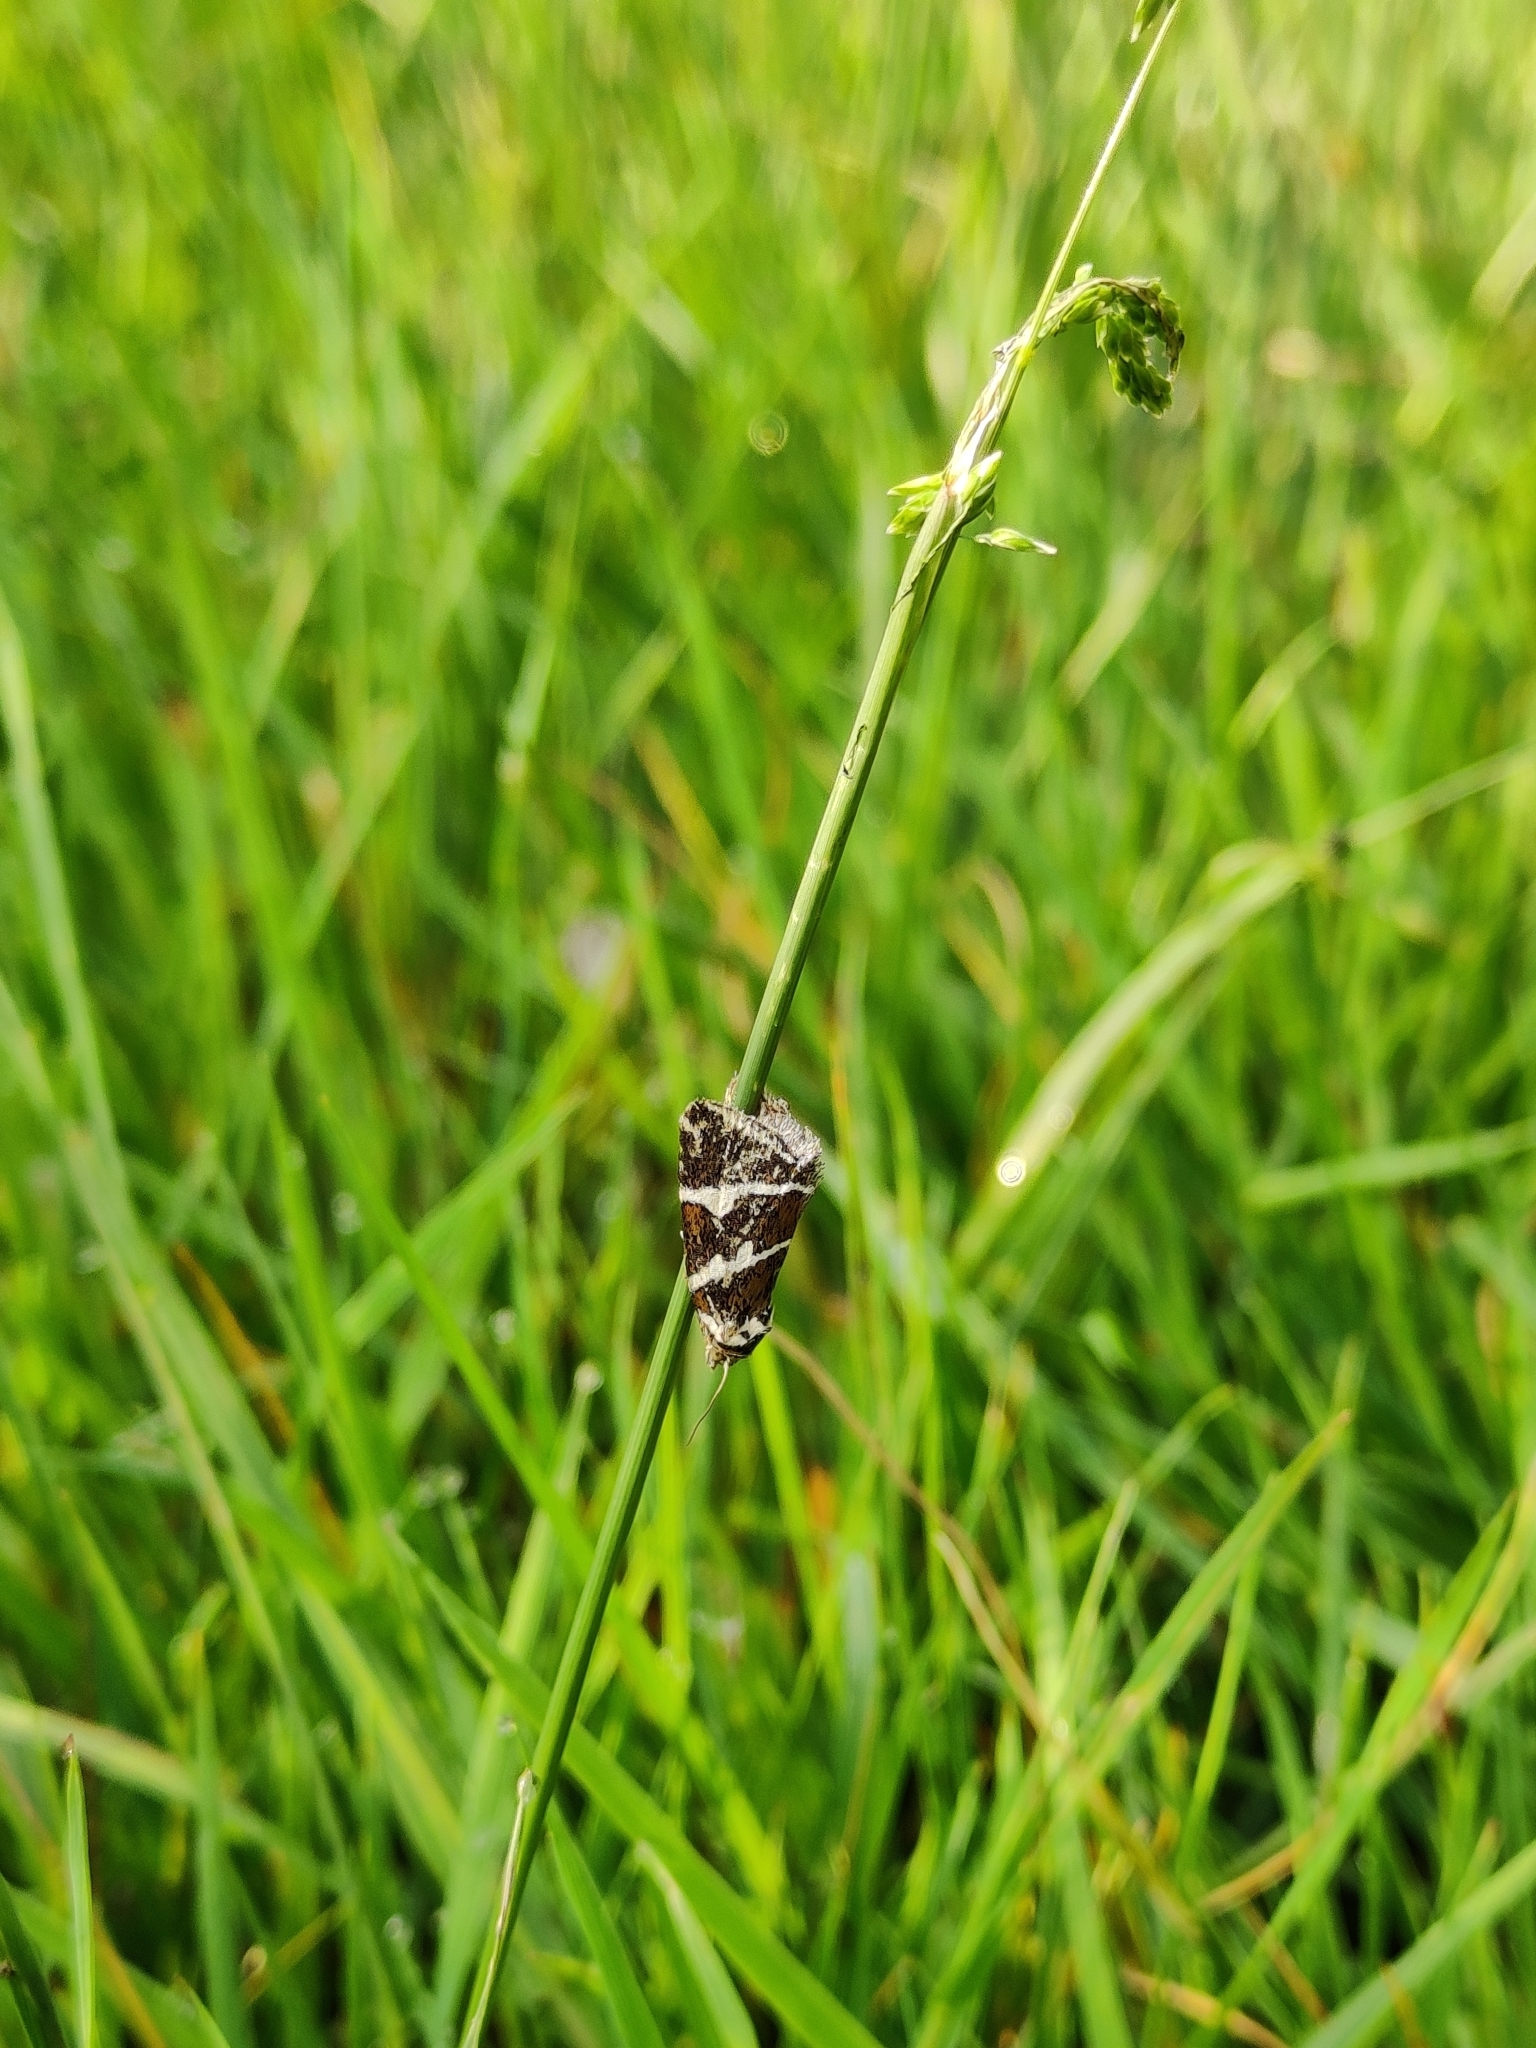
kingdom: Animalia
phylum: Arthropoda
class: Insecta
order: Lepidoptera
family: Noctuidae
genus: Deltote
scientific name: Deltote bankiana
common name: Silver barred
